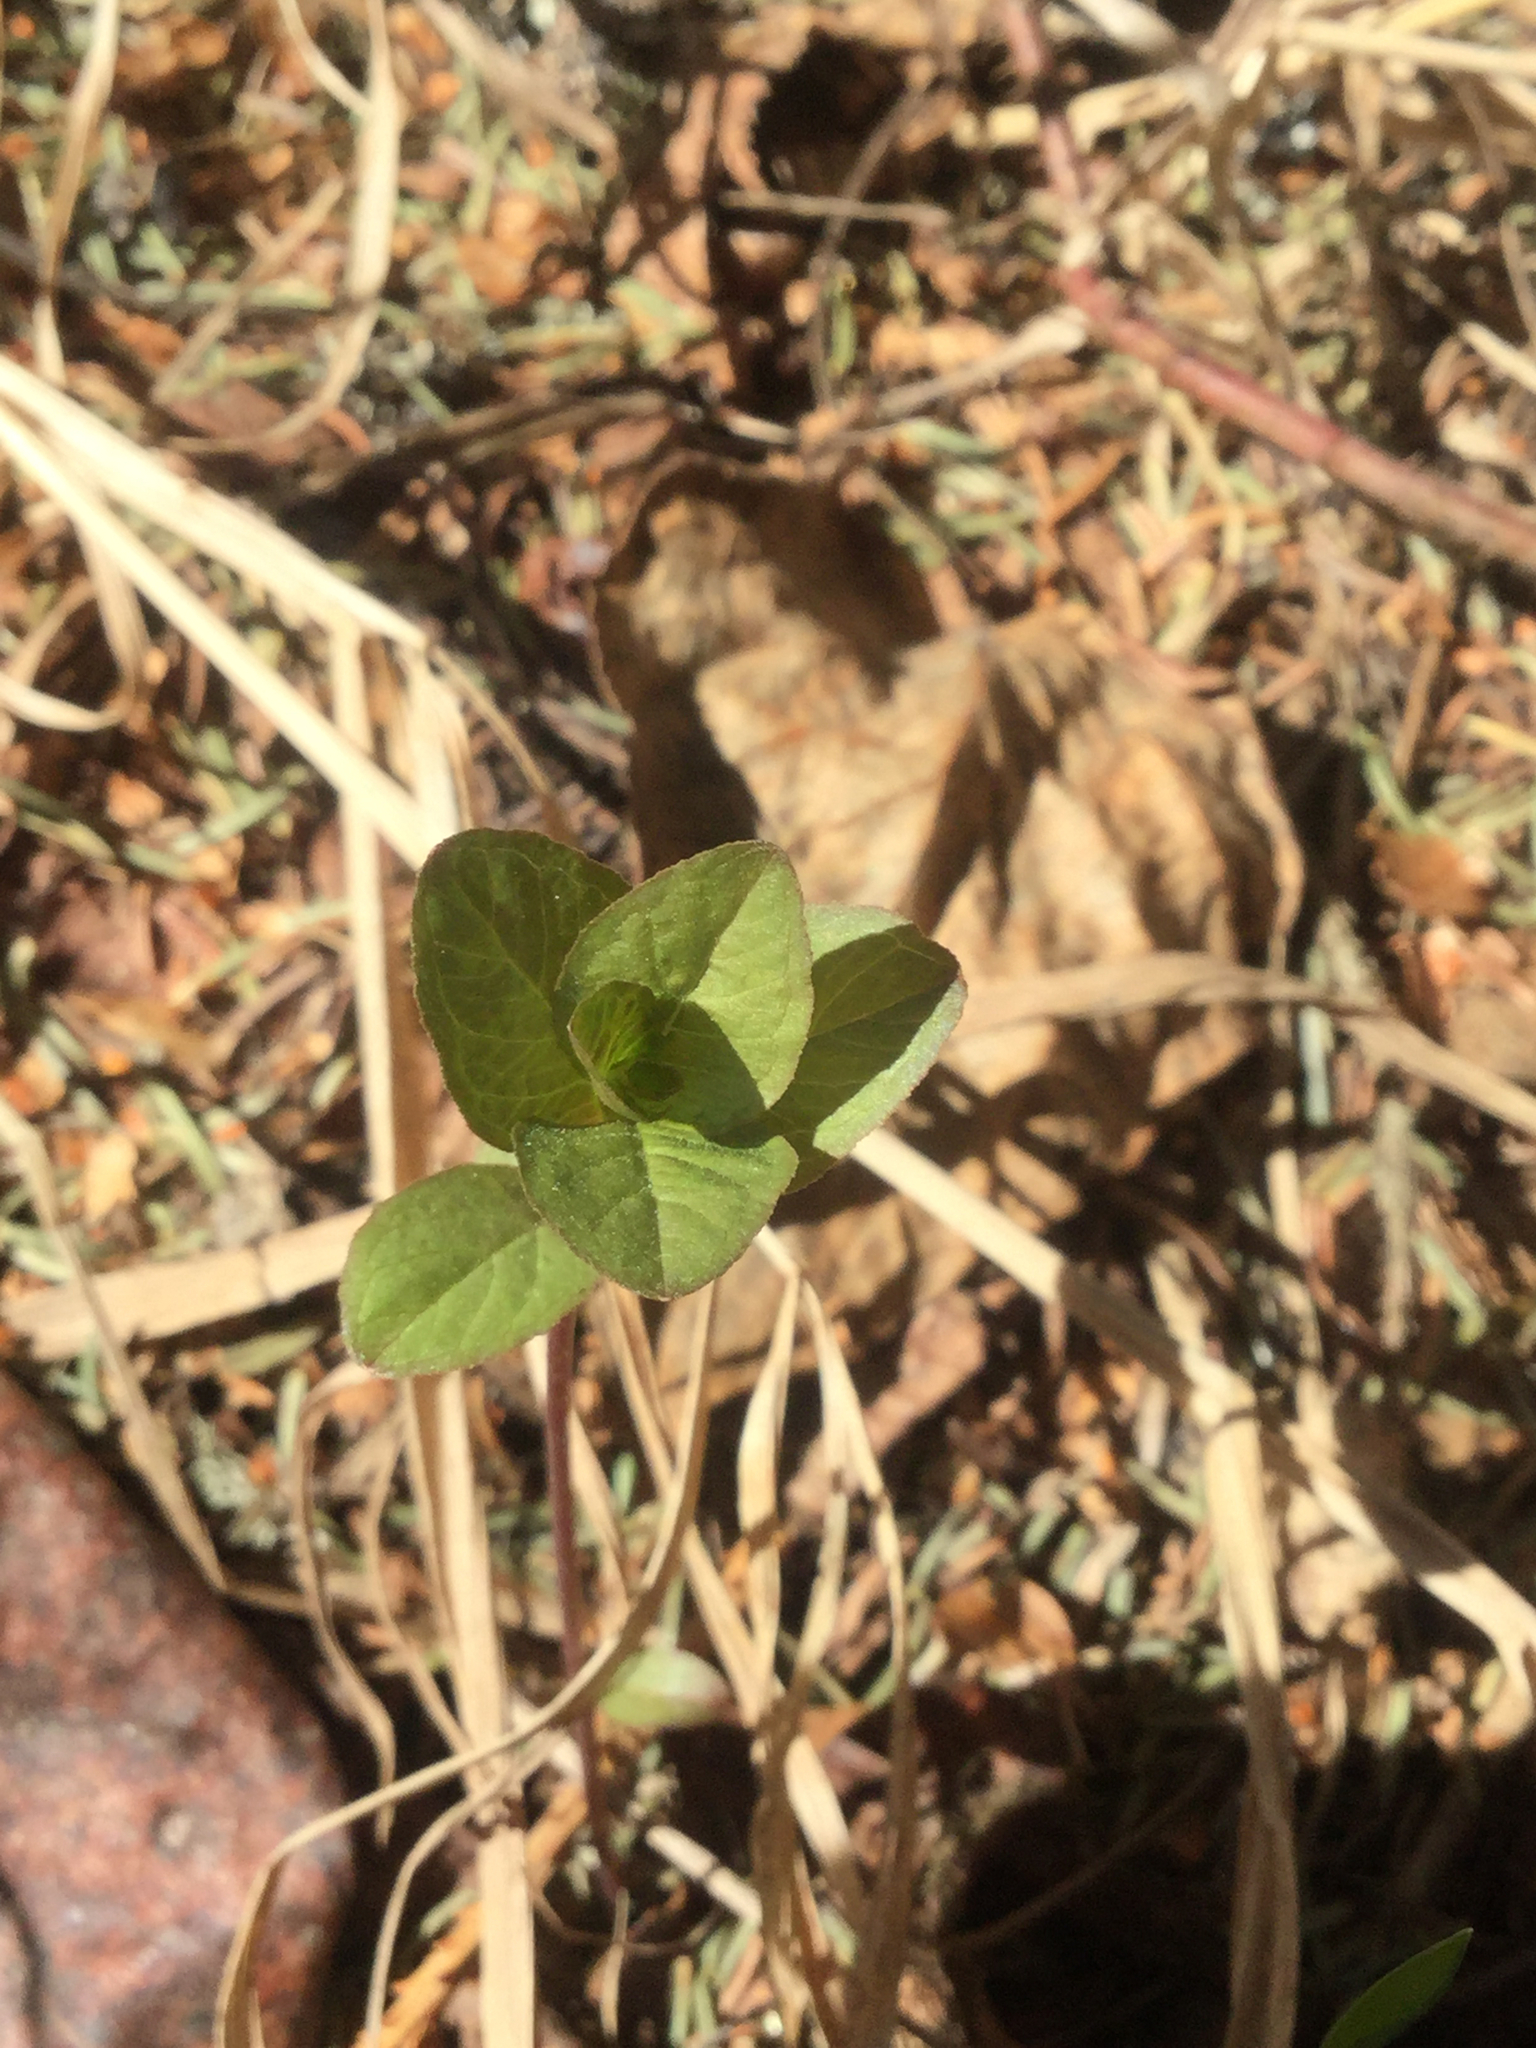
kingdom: Plantae
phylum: Tracheophyta
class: Magnoliopsida
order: Ericales
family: Primulaceae
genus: Lysimachia
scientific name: Lysimachia europaea
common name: Arctic starflower
